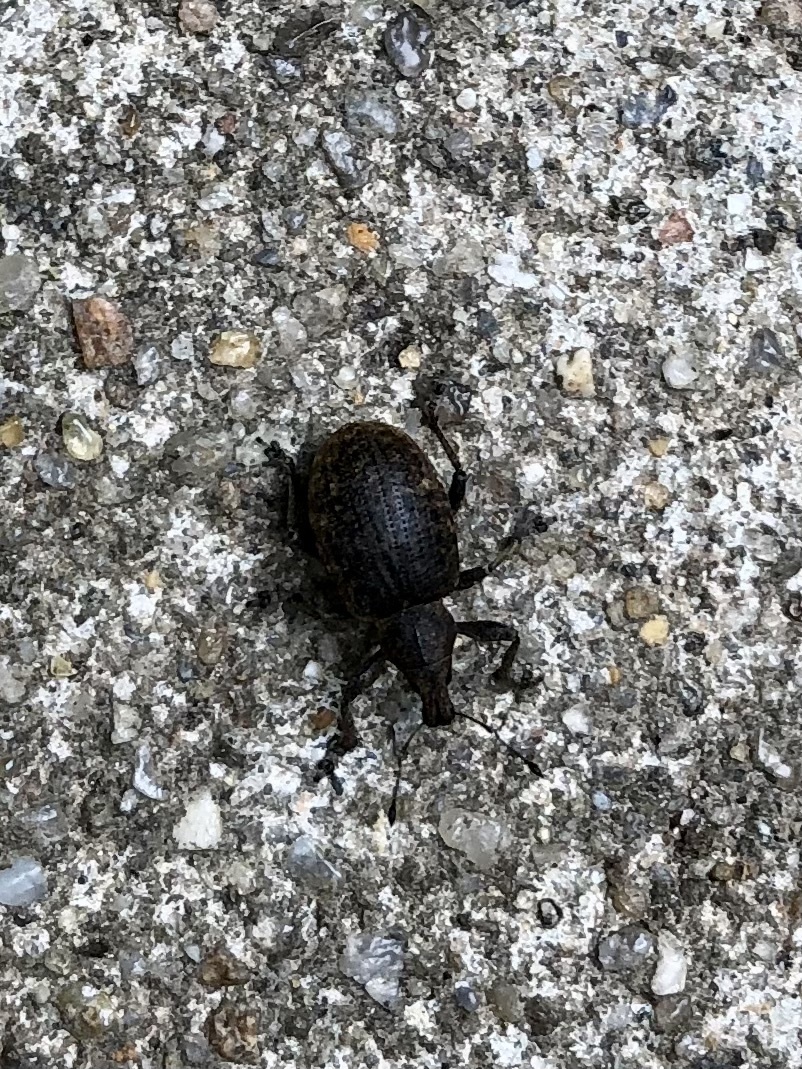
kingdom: Animalia
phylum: Arthropoda
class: Insecta
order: Coleoptera
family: Curculionidae
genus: Liophloeus
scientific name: Liophloeus tessulatus
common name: Weevil
